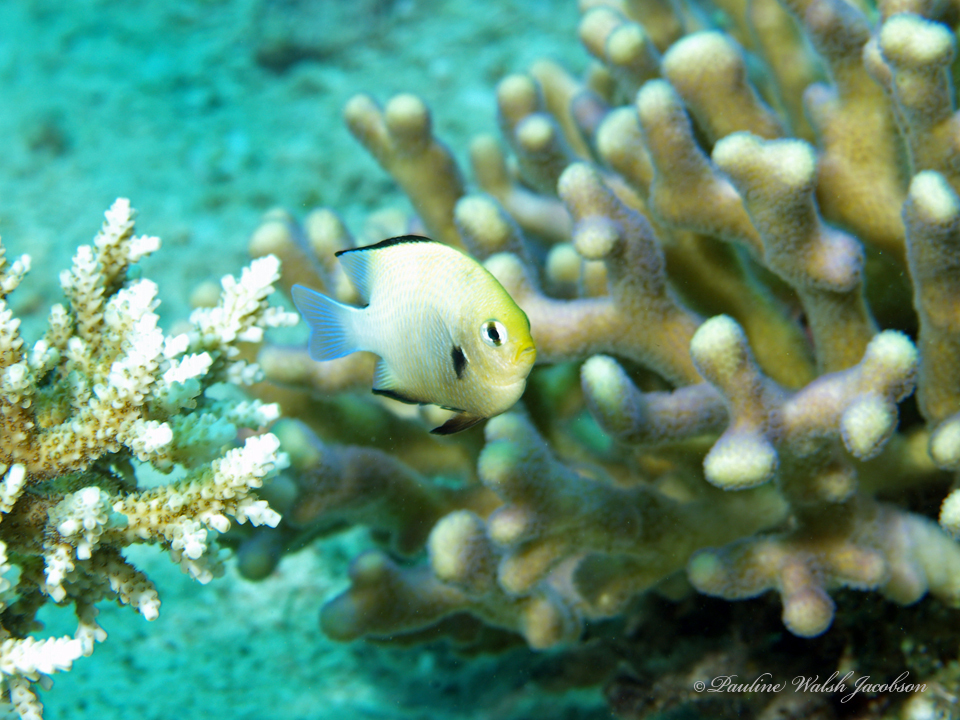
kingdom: Animalia
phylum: Chordata
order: Perciformes
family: Pomacentridae
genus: Dascyllus
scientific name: Dascyllus marginatus
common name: Red sea dascyllus
